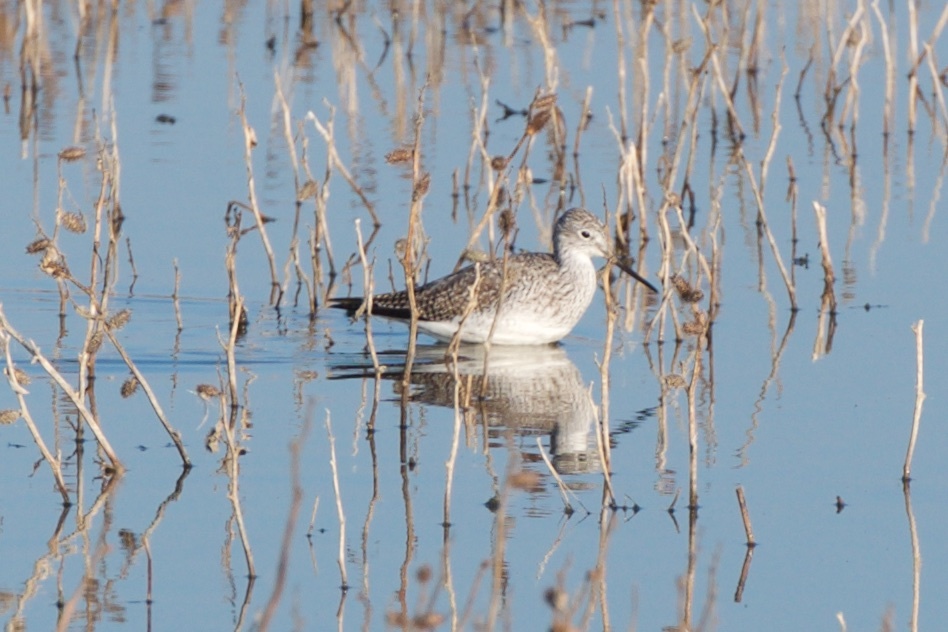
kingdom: Animalia
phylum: Chordata
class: Aves
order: Charadriiformes
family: Scolopacidae
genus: Tringa
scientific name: Tringa melanoleuca
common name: Greater yellowlegs
